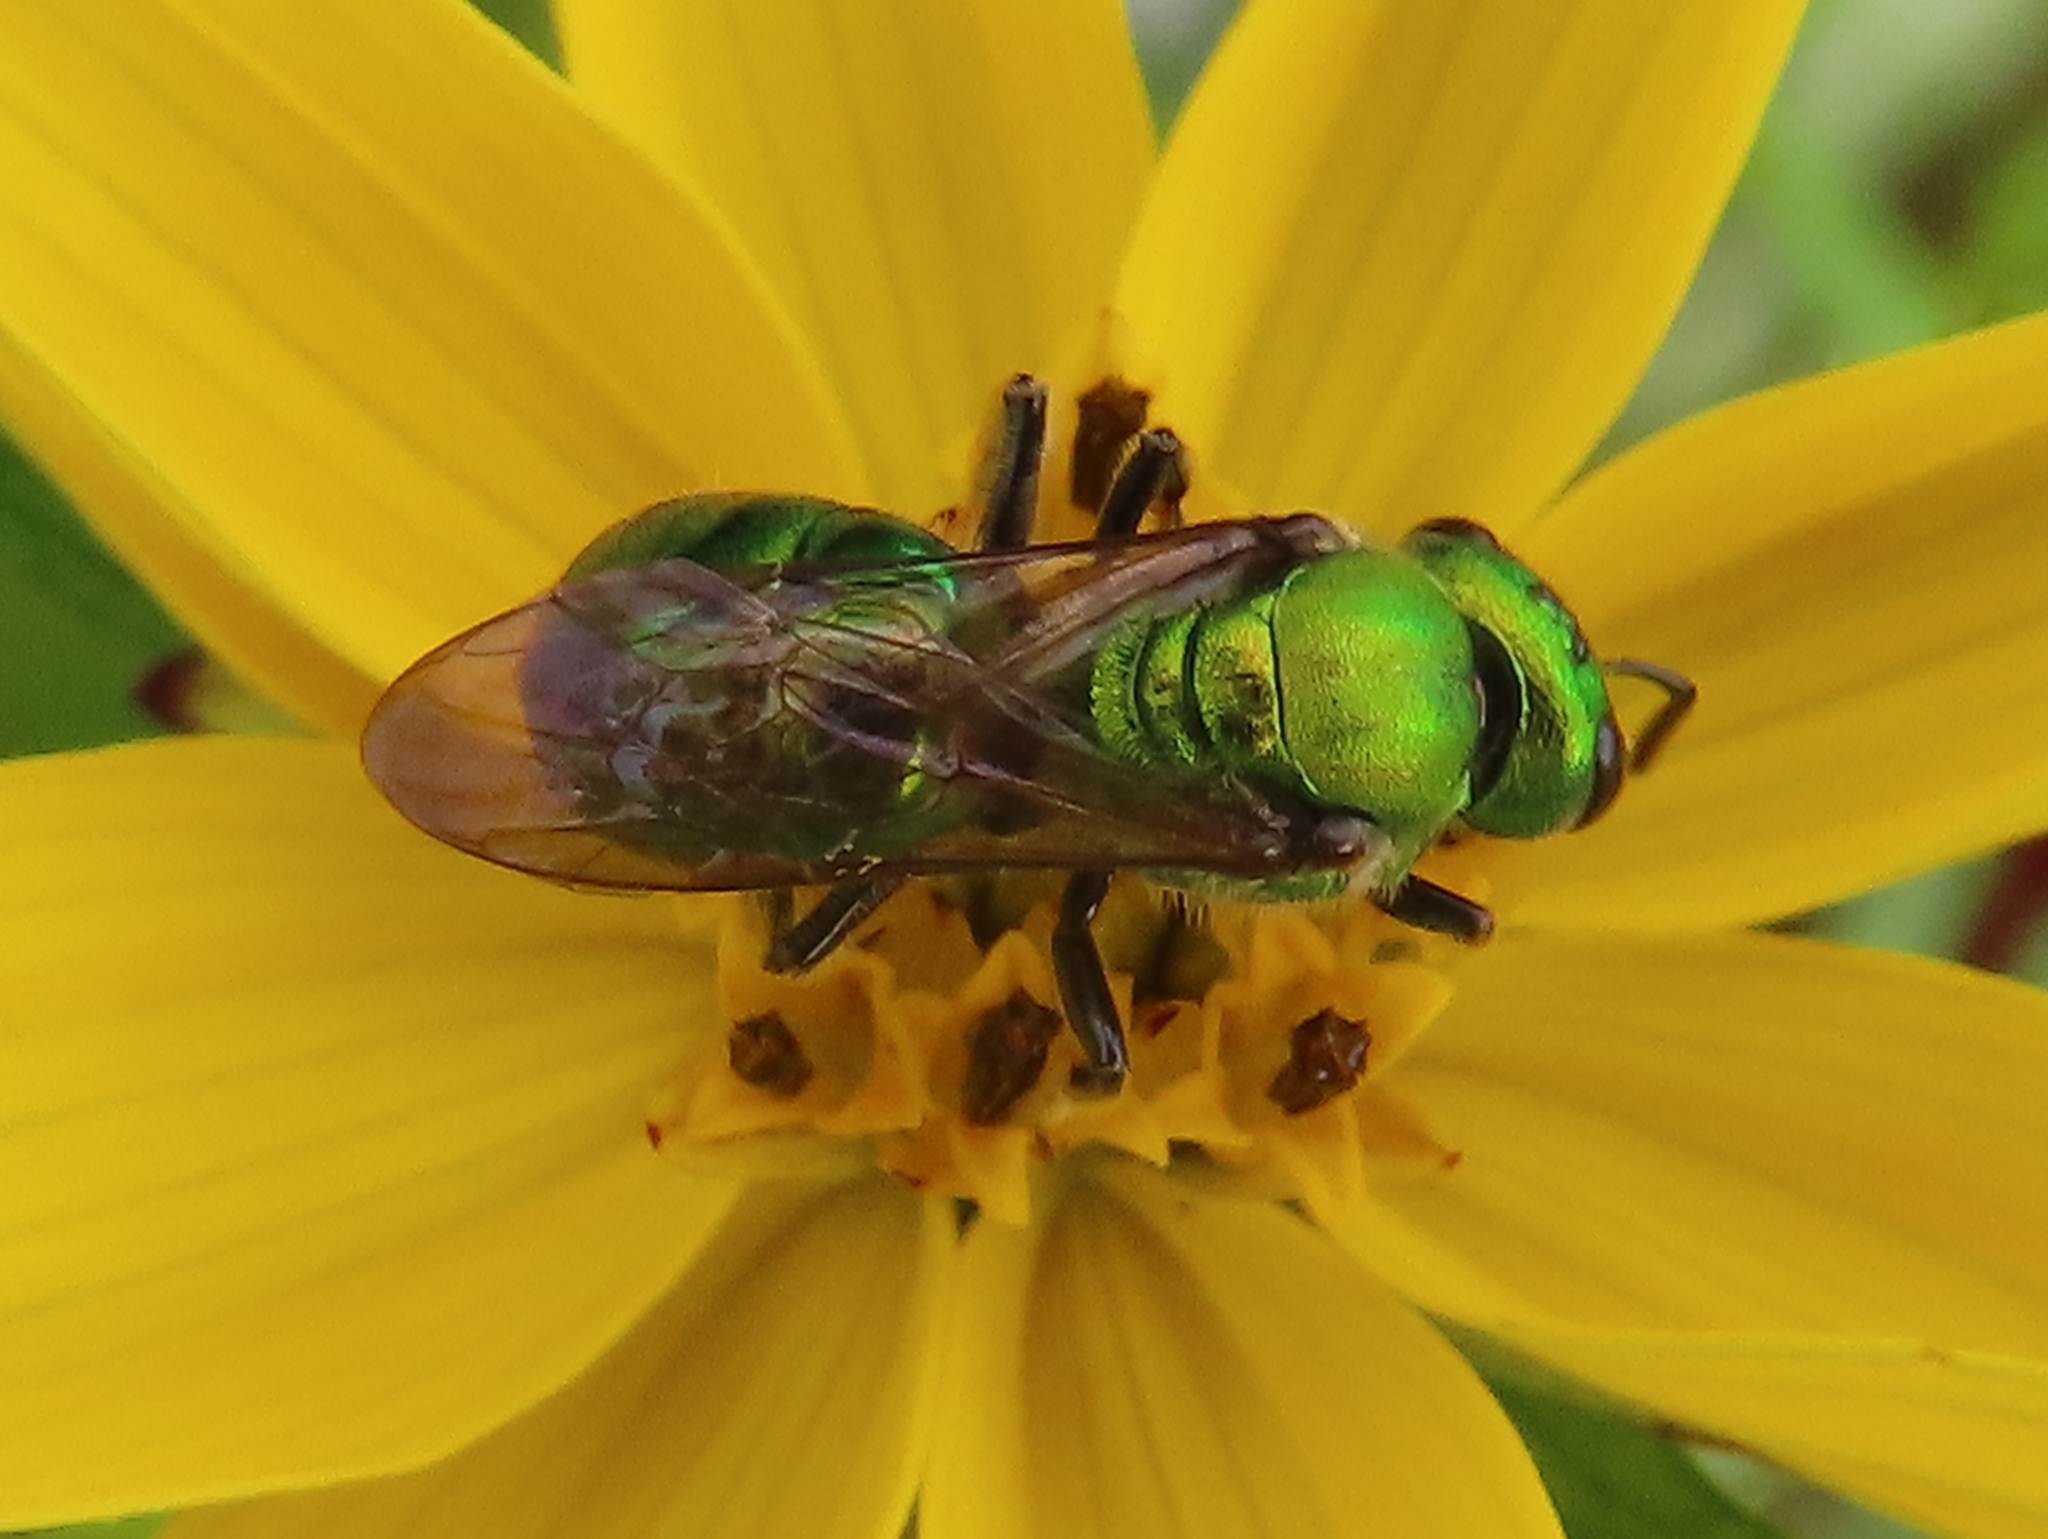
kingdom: Animalia
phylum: Arthropoda
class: Insecta
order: Hymenoptera
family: Halictidae
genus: Augochlora
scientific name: Augochlora pura
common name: Pure green sweat bee
